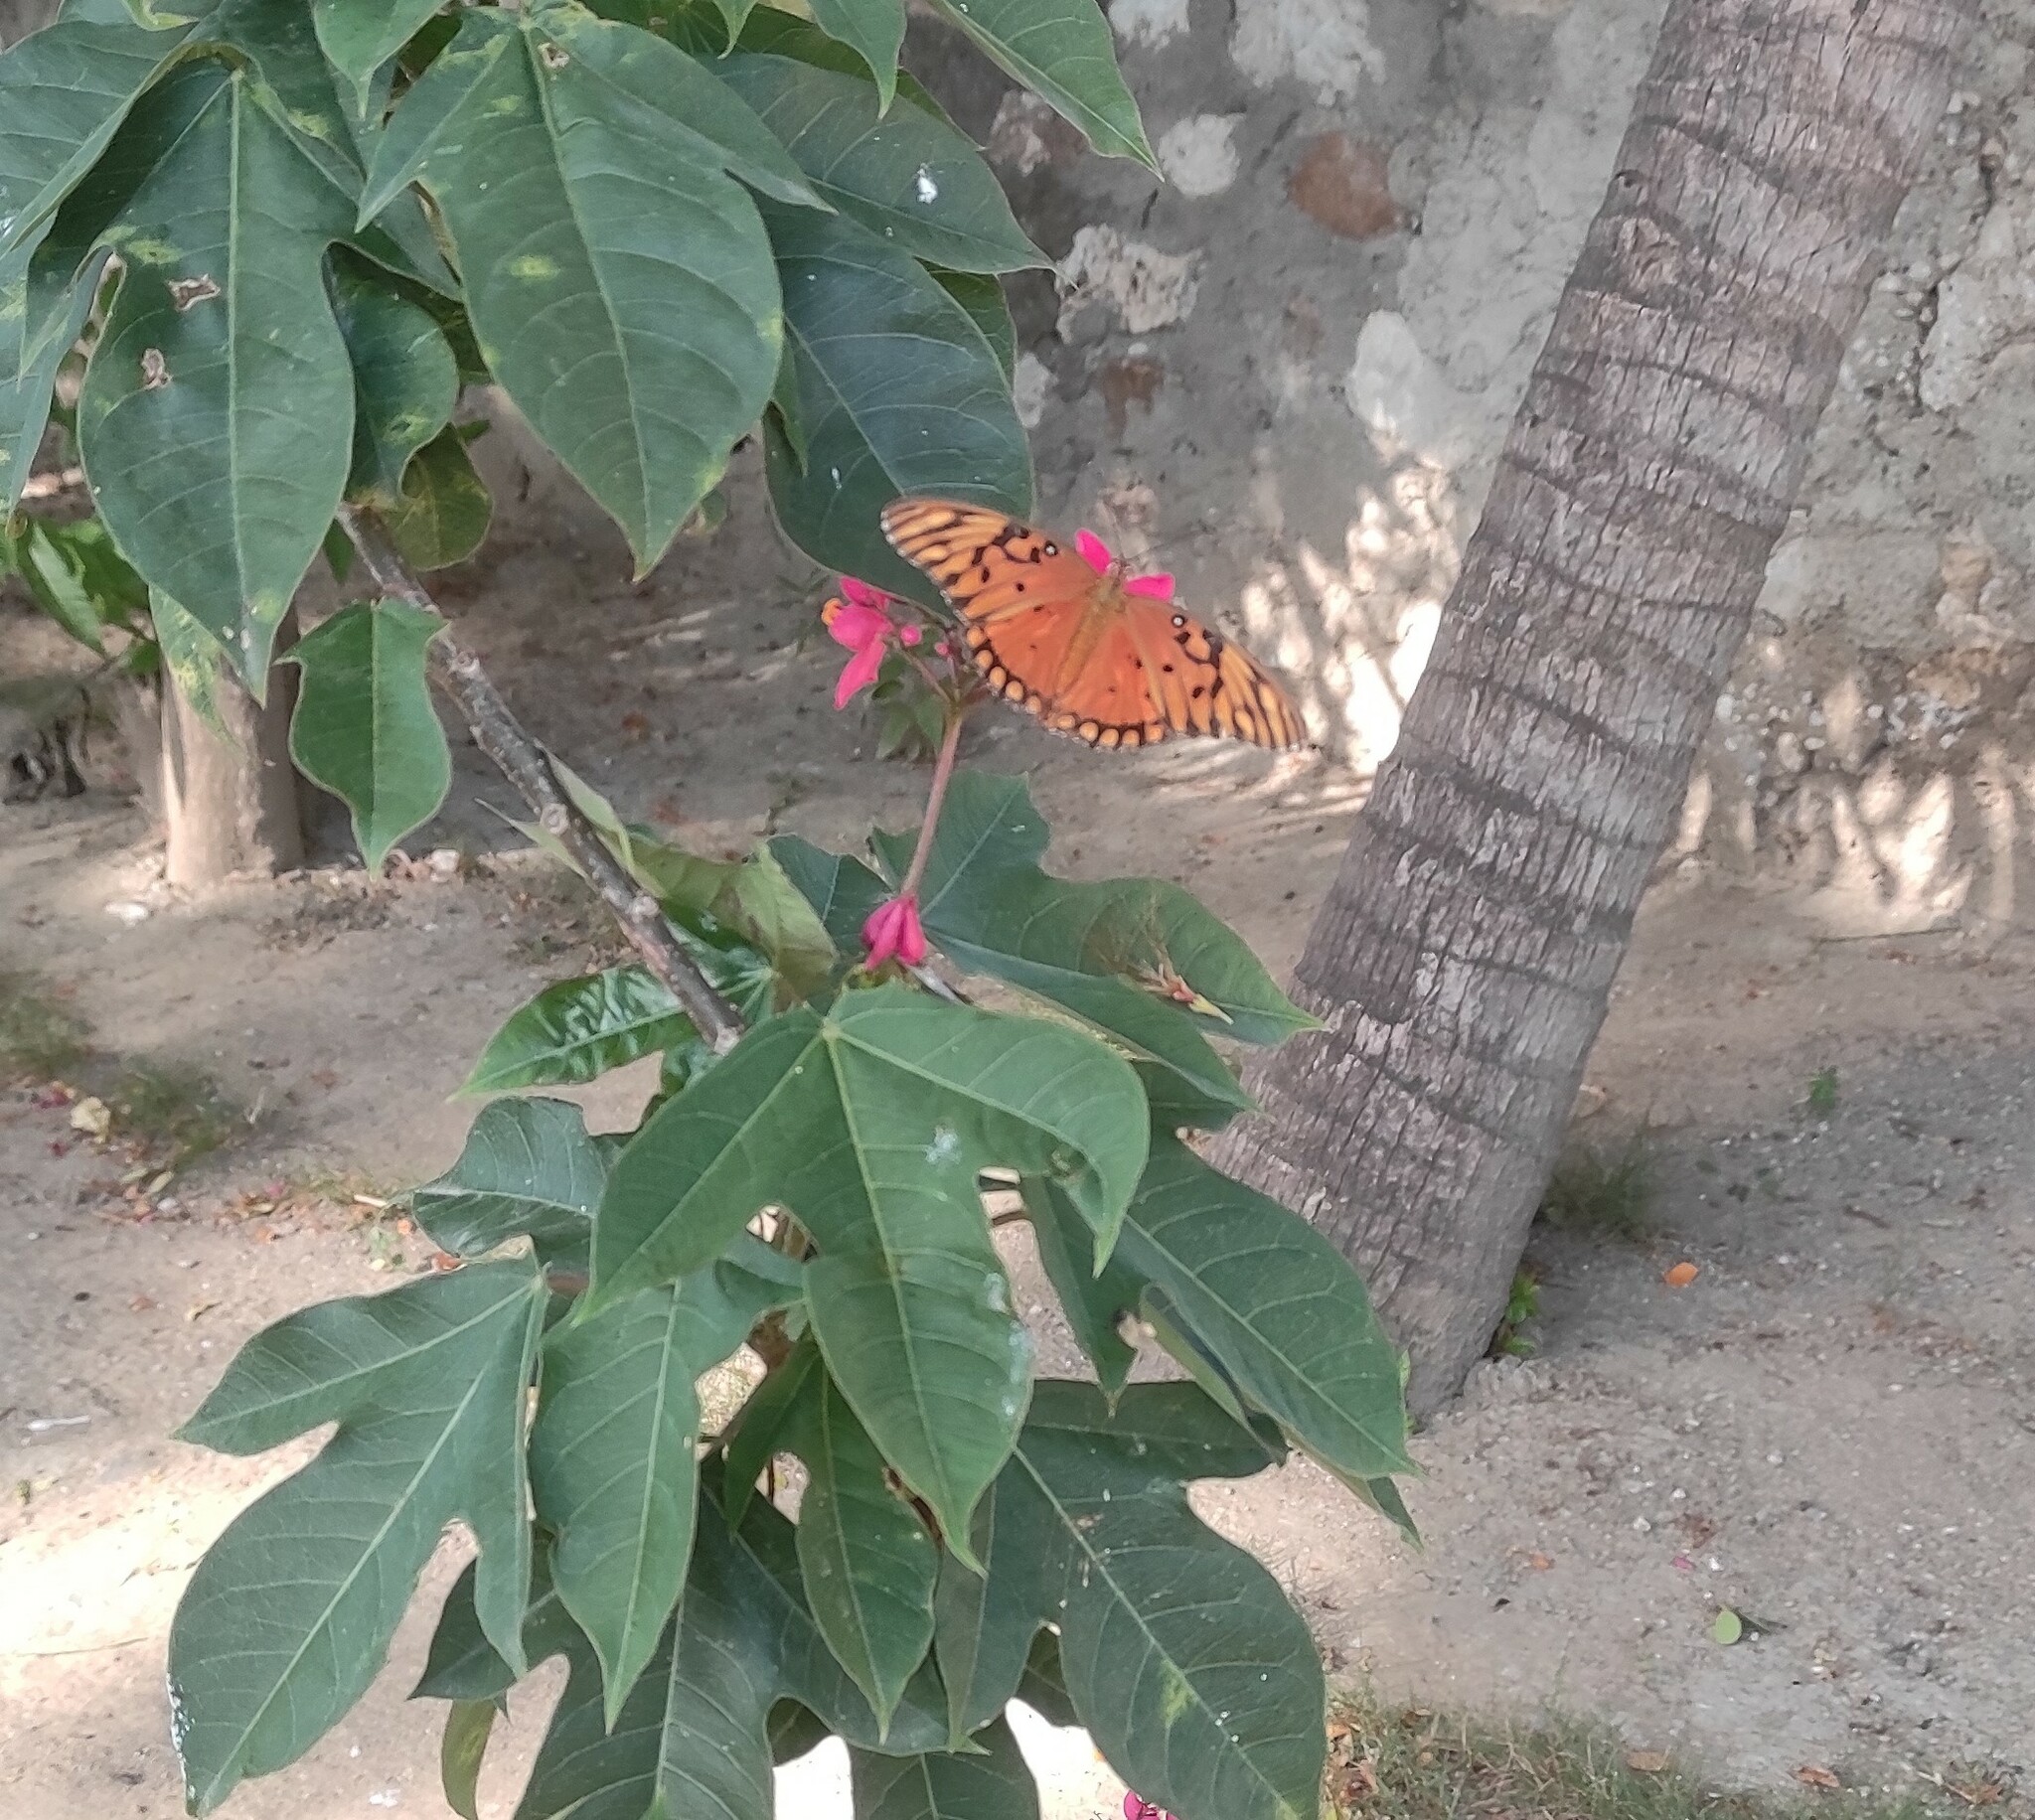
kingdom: Animalia
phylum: Arthropoda
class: Insecta
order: Lepidoptera
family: Nymphalidae
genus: Dione
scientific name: Dione vanillae
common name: Gulf fritillary
